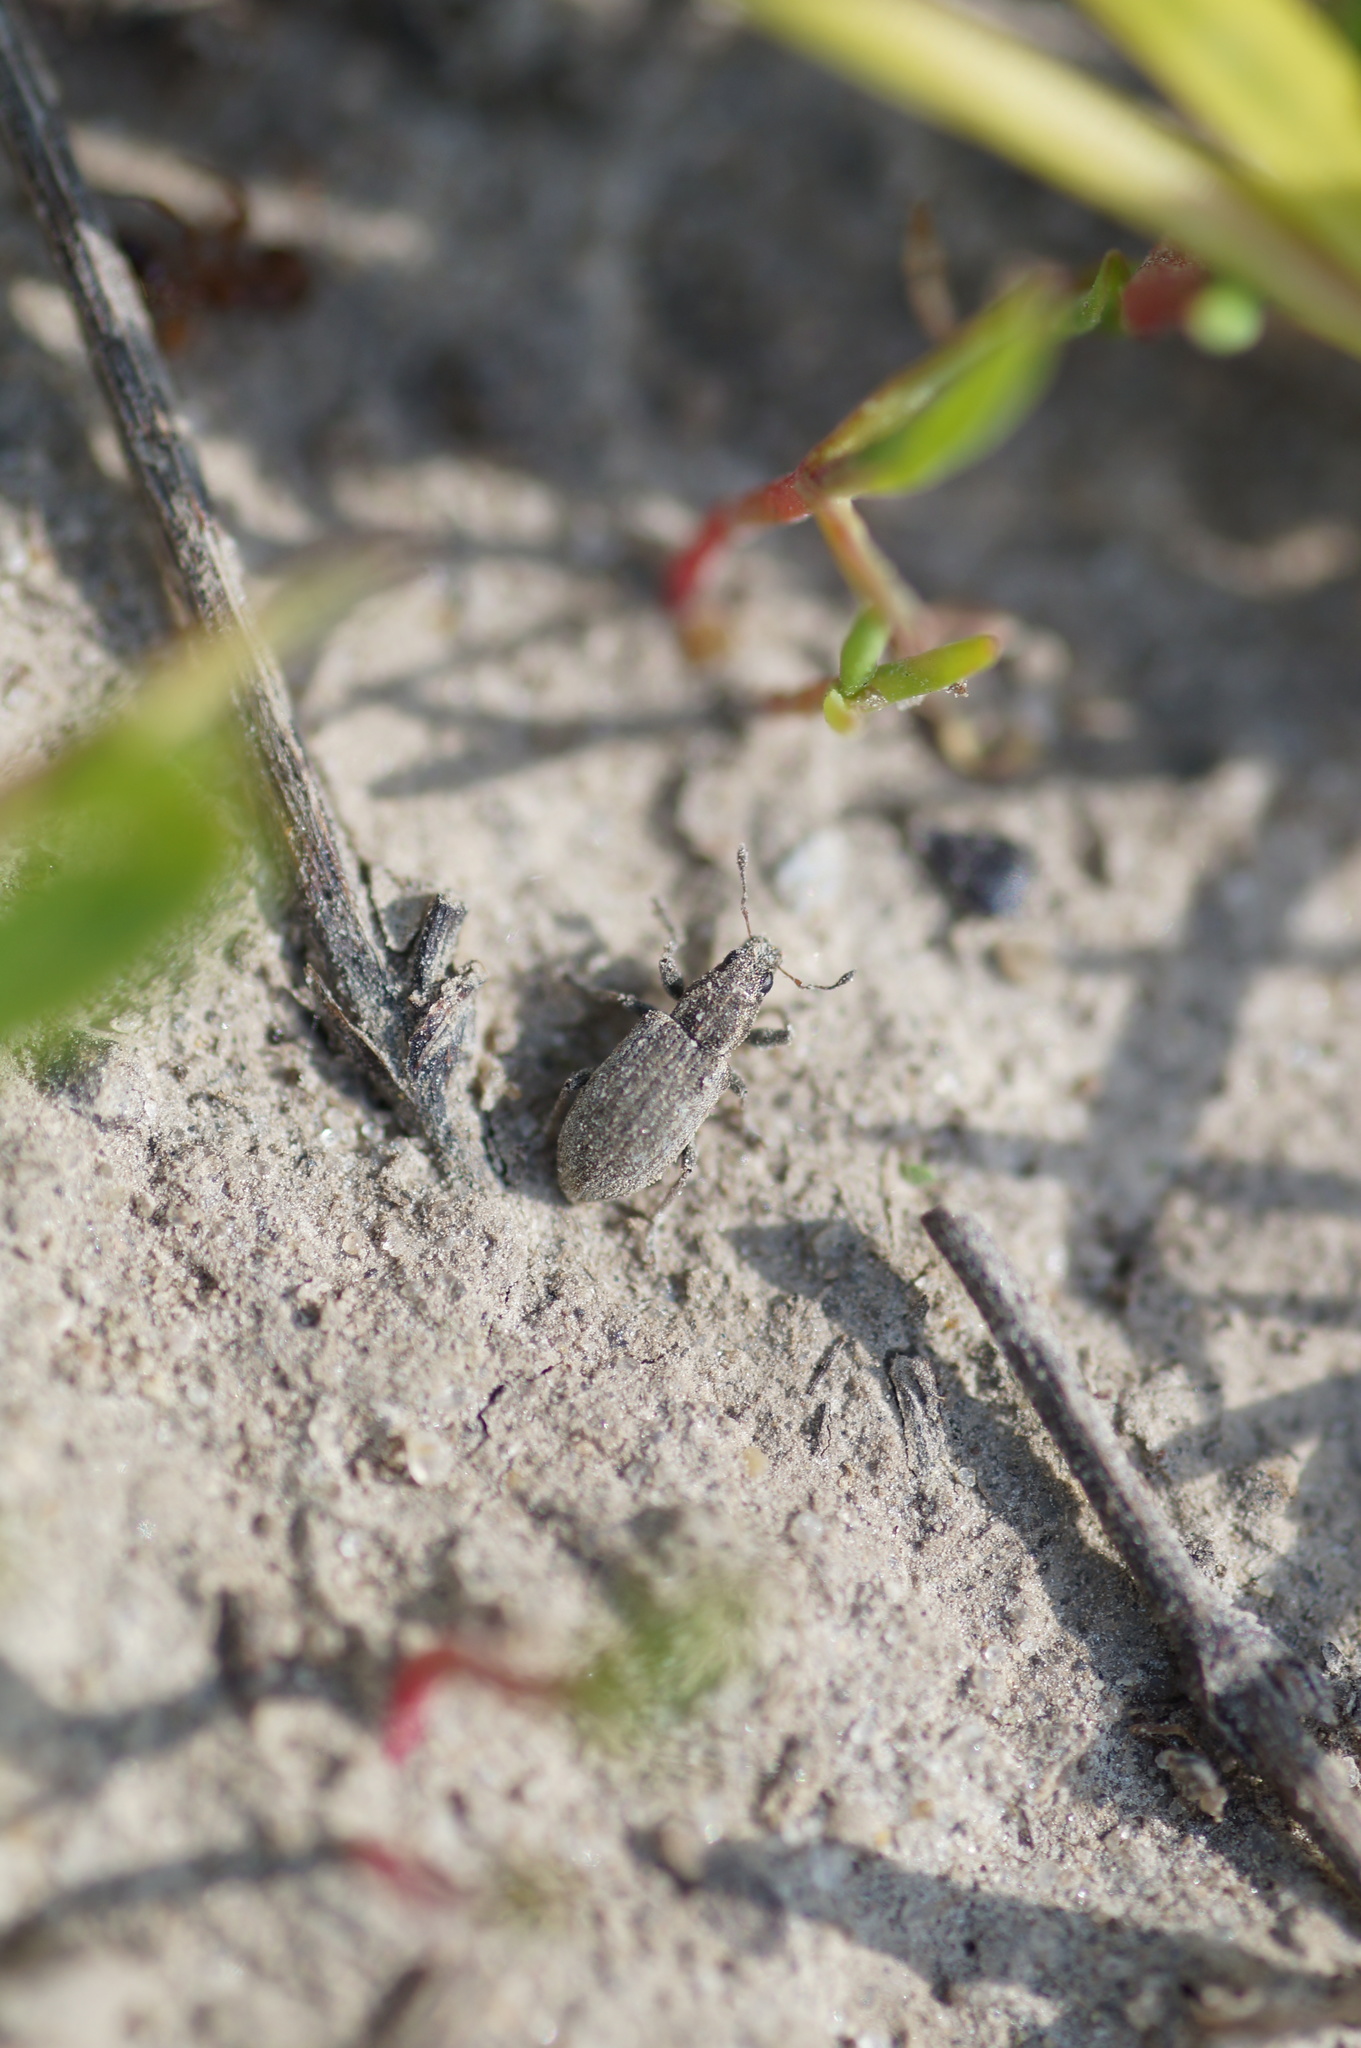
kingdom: Animalia
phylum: Arthropoda
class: Insecta
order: Coleoptera
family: Curculionidae
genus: Sitona
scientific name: Sitona humeralis
